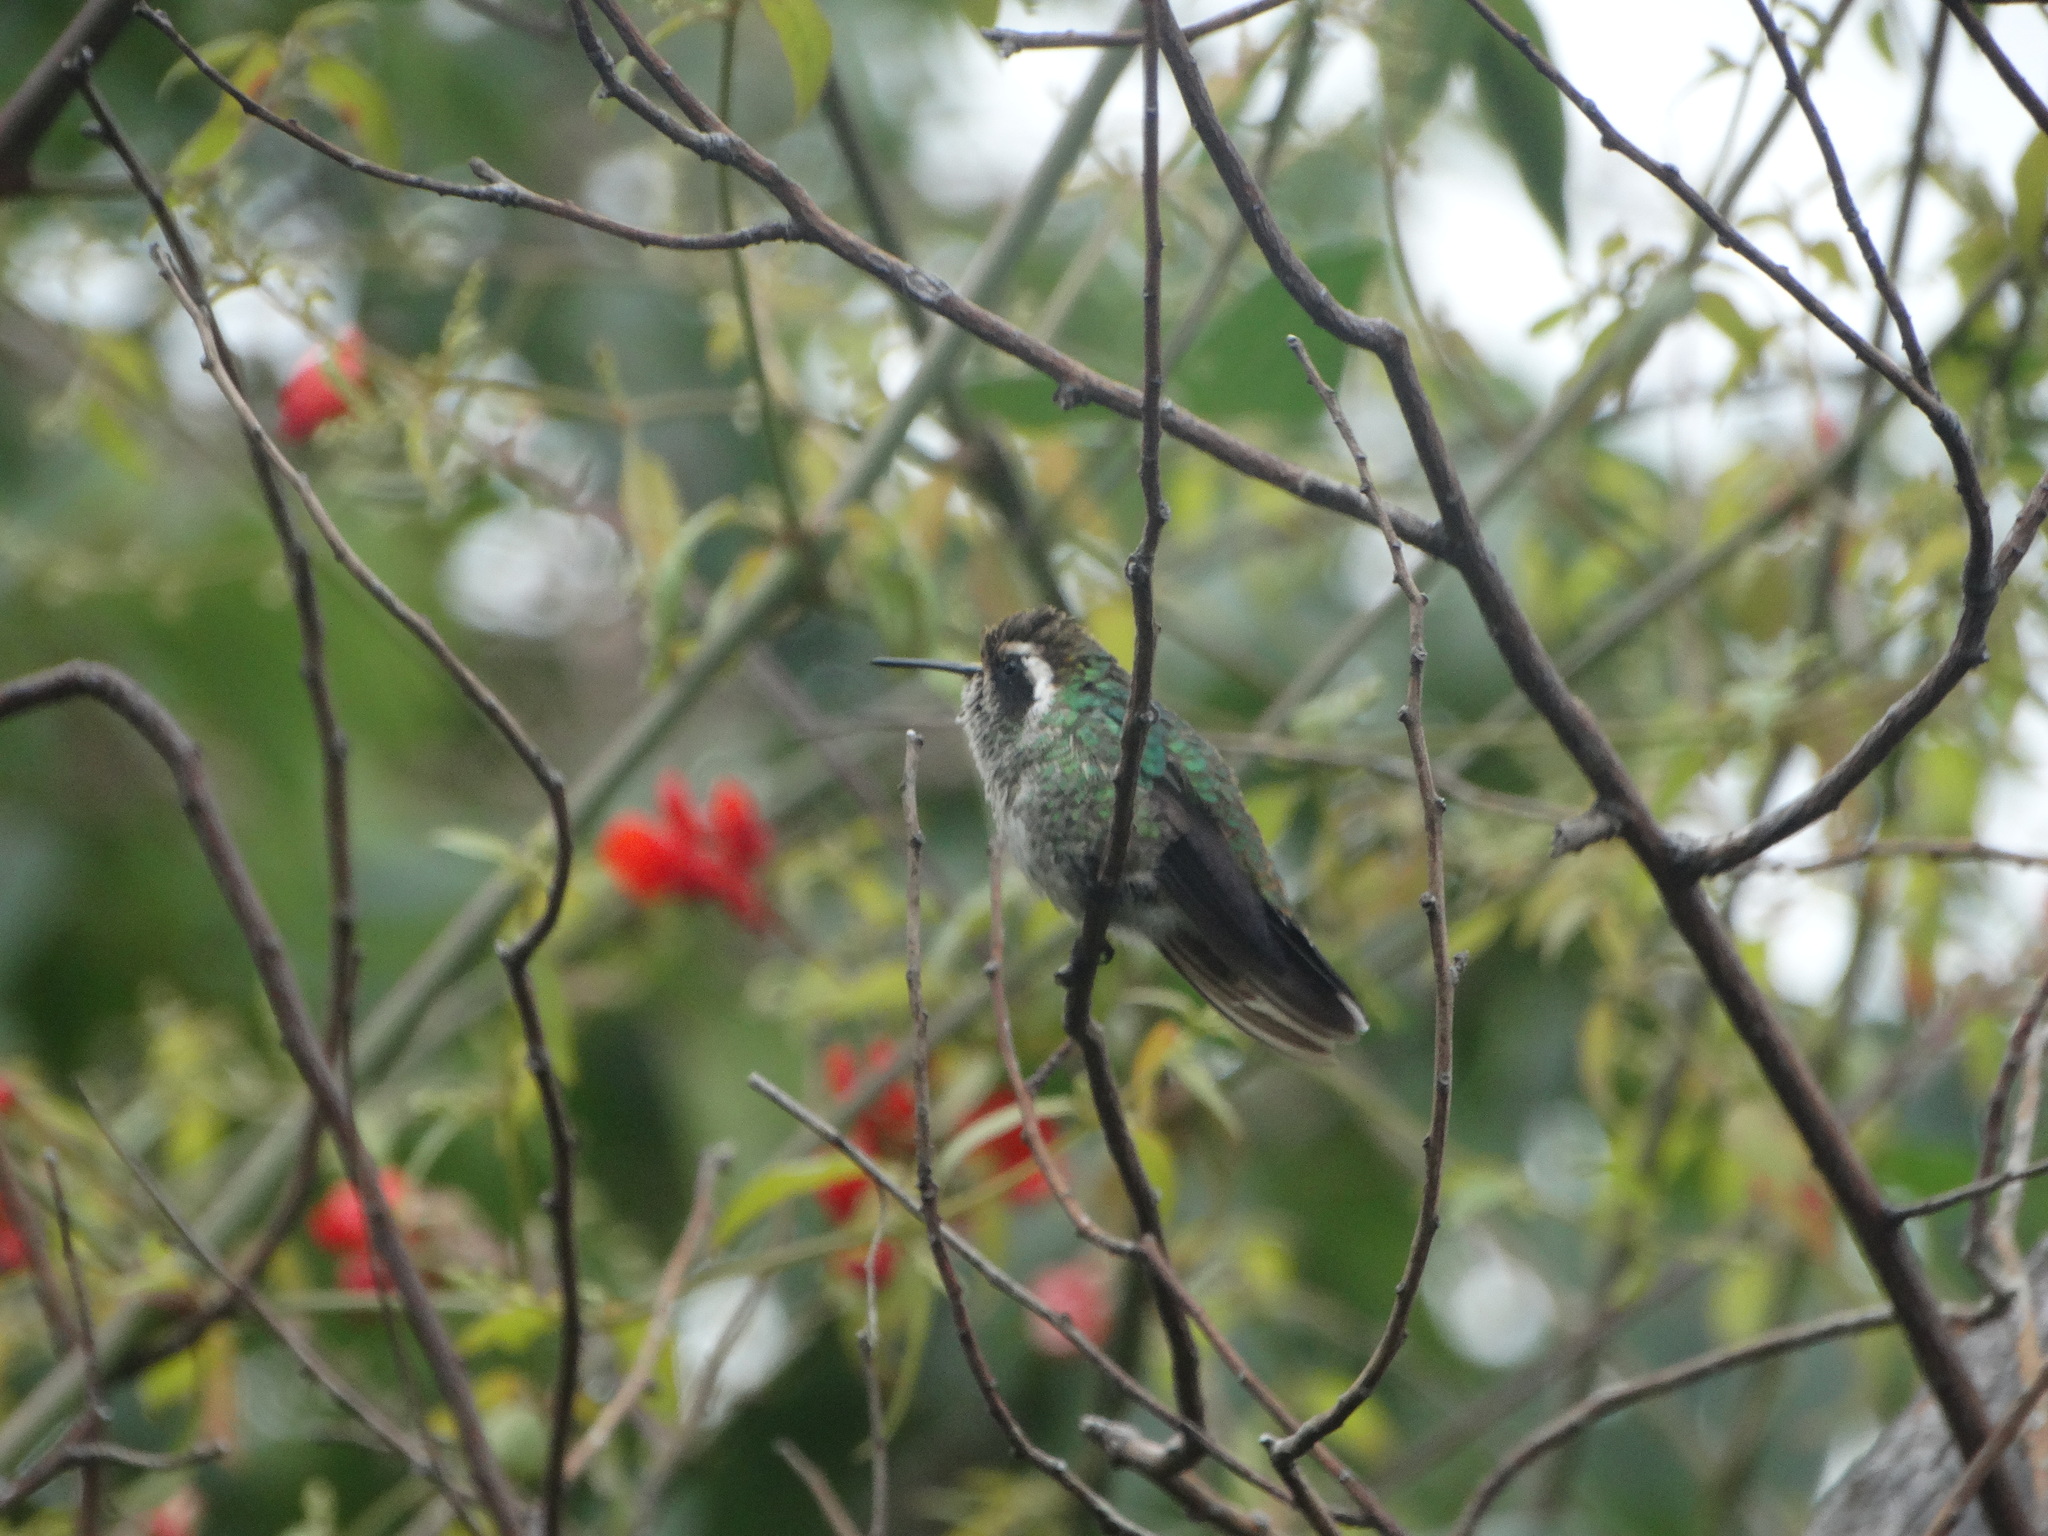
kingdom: Animalia
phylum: Chordata
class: Aves
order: Apodiformes
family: Trochilidae
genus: Basilinna
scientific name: Basilinna leucotis
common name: White-eared hummingbird
